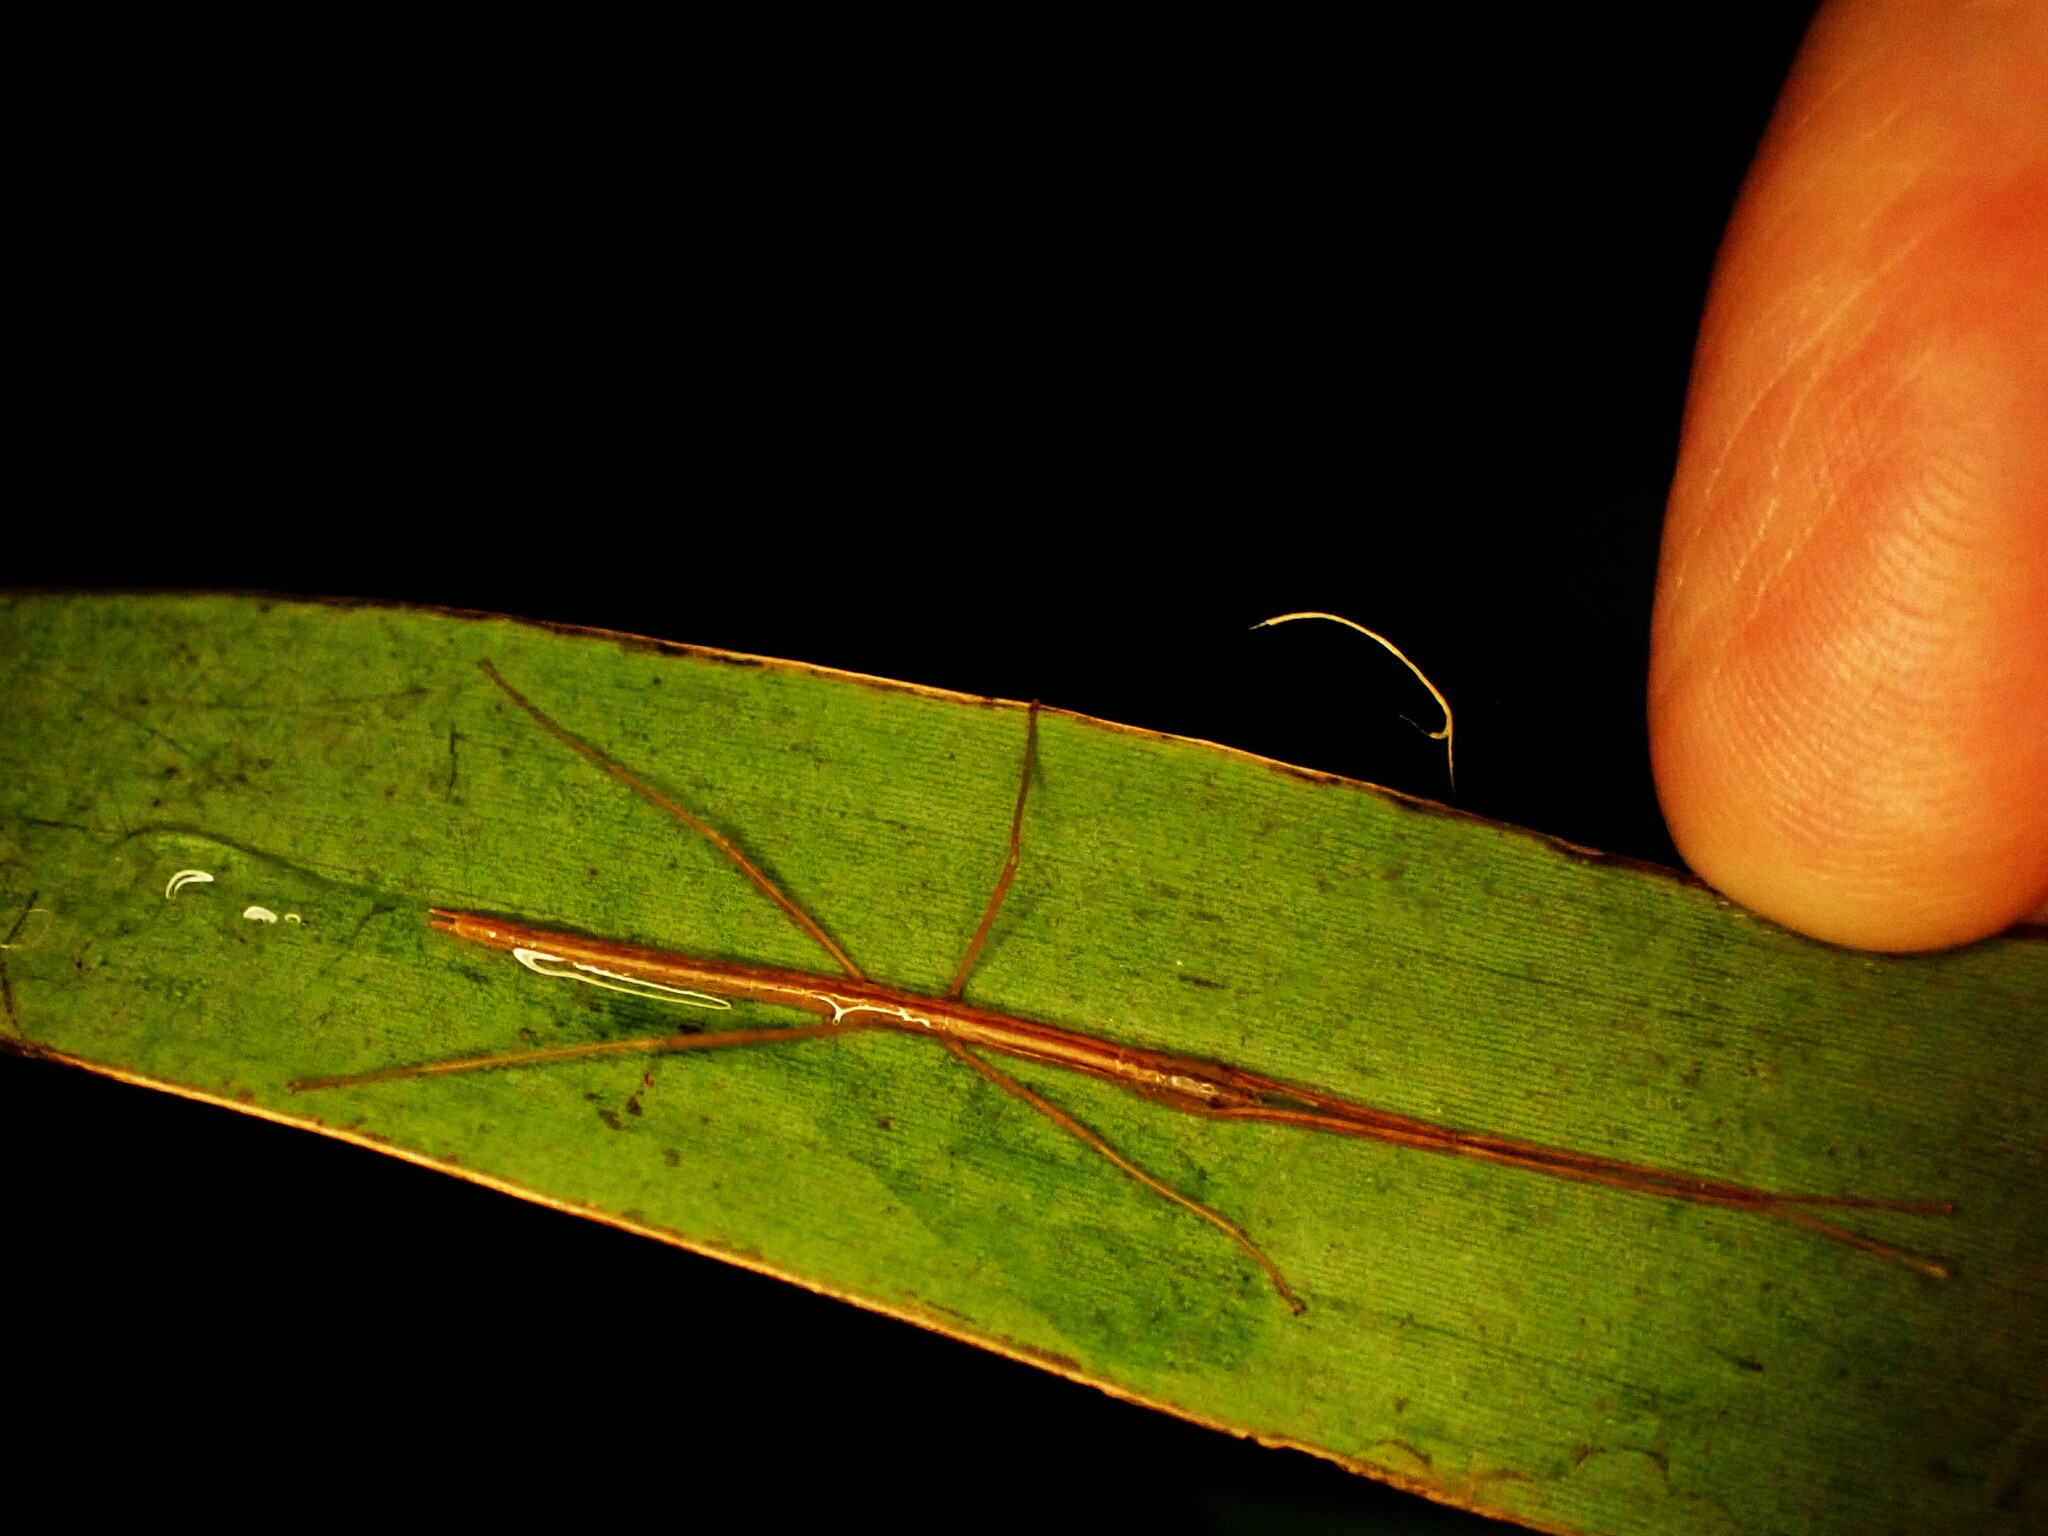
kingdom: Animalia
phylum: Arthropoda
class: Insecta
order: Phasmida
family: Phasmatidae
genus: Graeffea
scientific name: Graeffea crouanii
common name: Coconut stick insect
